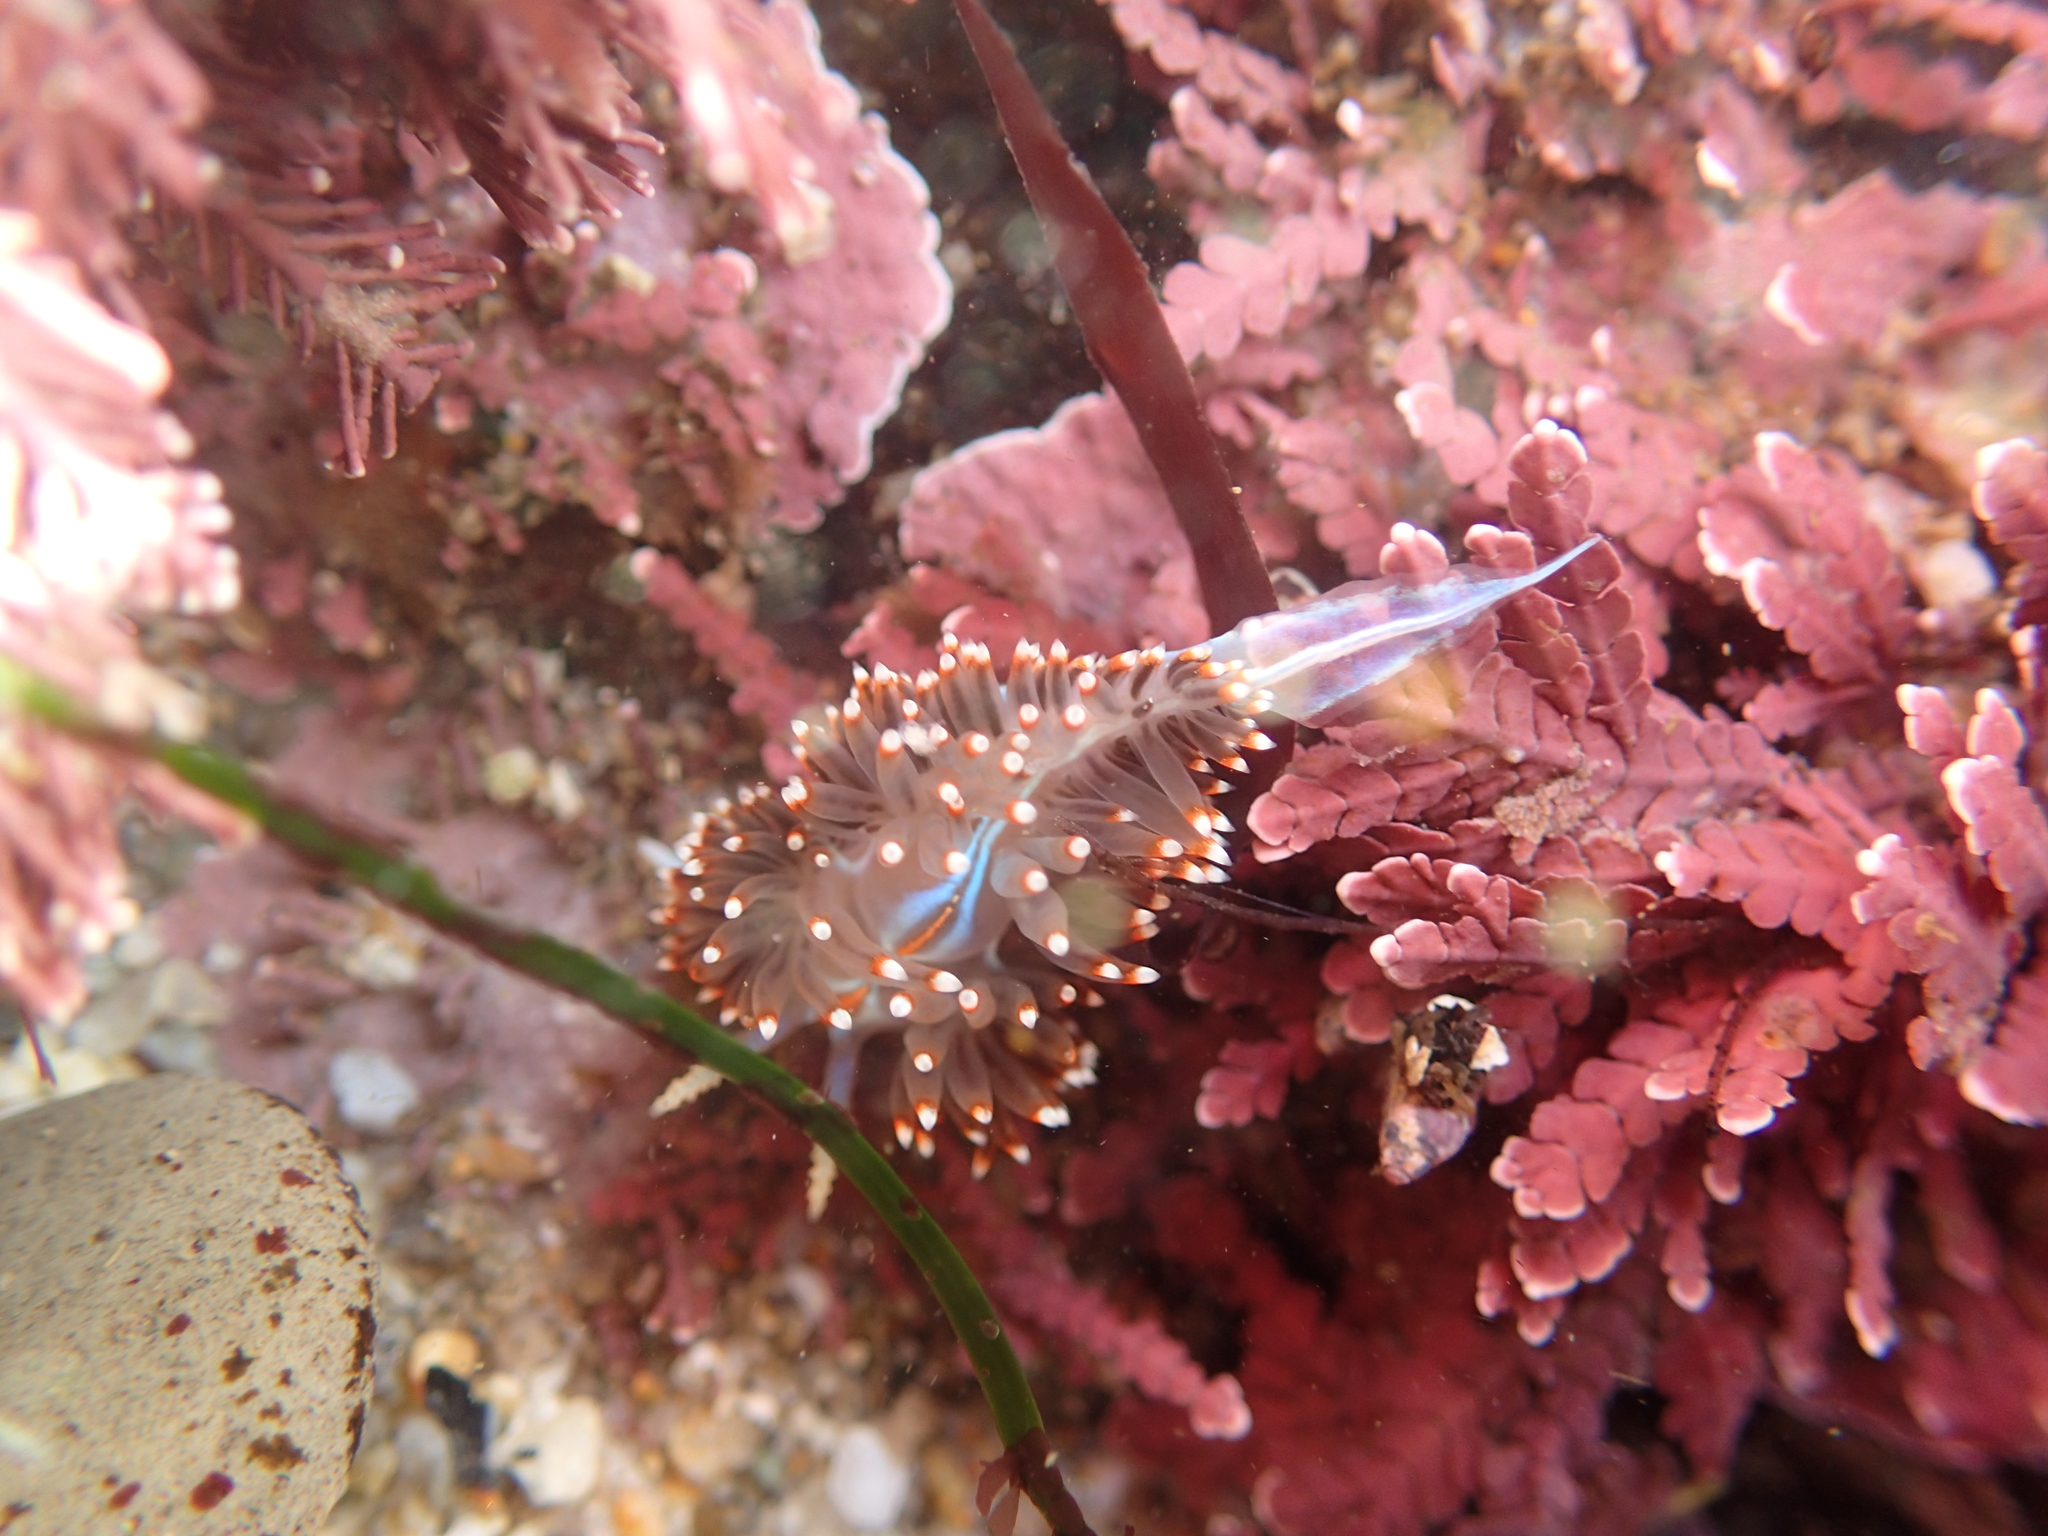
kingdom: Animalia
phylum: Mollusca
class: Gastropoda
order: Nudibranchia
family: Myrrhinidae
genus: Hermissenda
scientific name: Hermissenda opalescens
